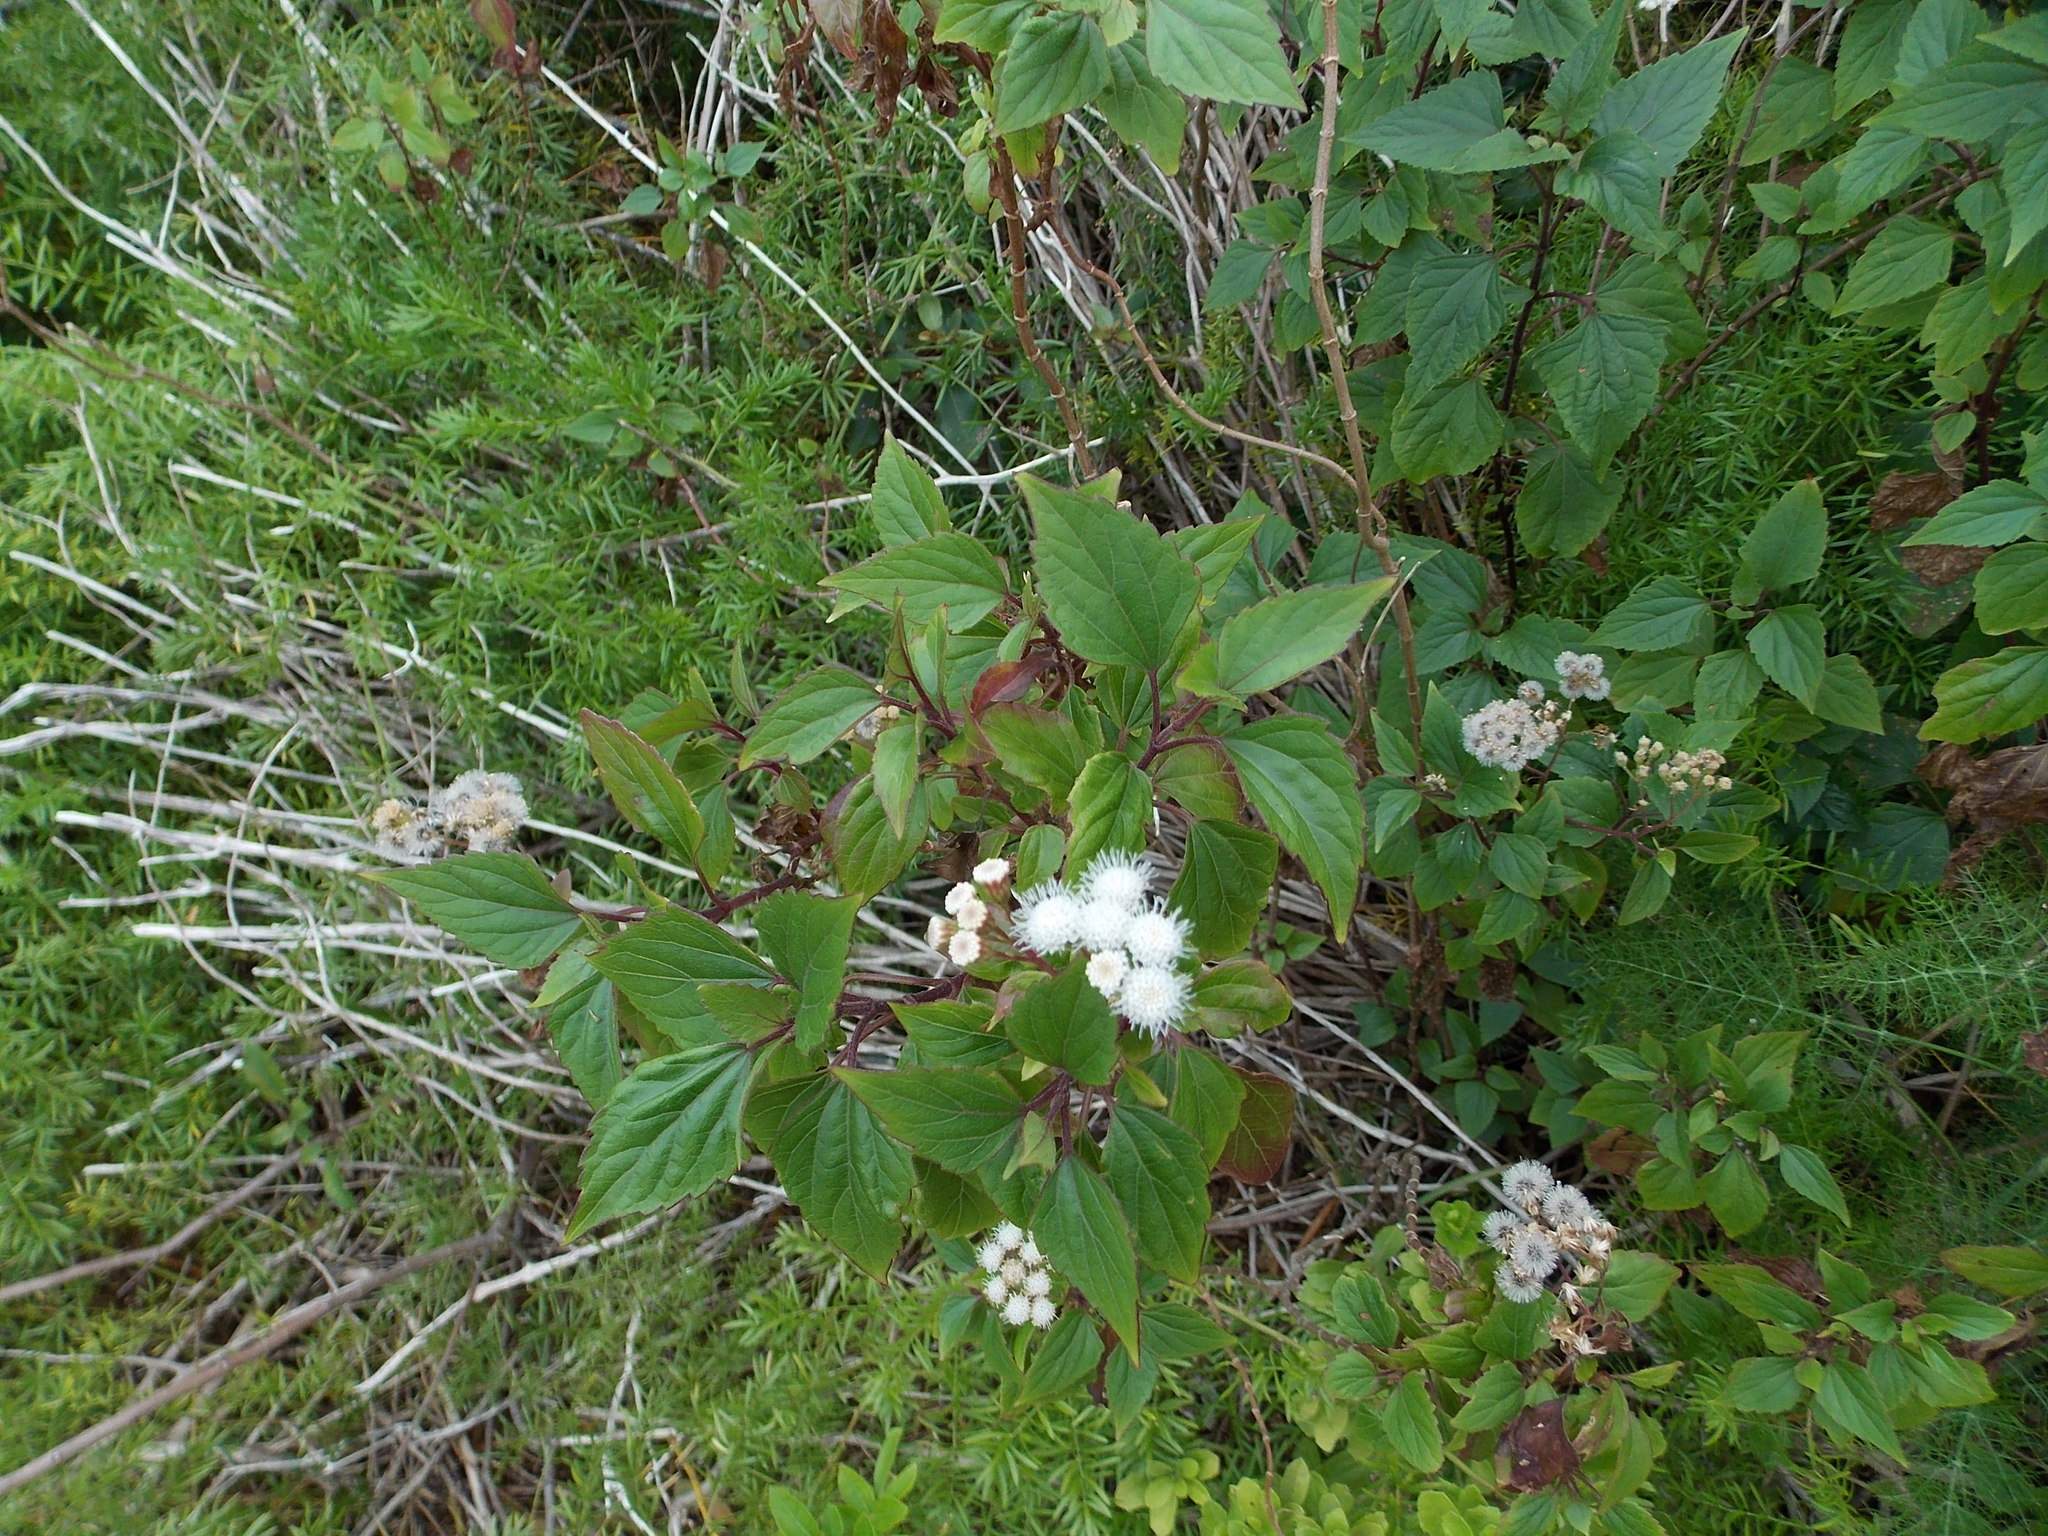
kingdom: Plantae
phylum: Tracheophyta
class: Magnoliopsida
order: Asterales
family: Asteraceae
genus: Ageratina
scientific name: Ageratina adenophora
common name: Sticky snakeroot
